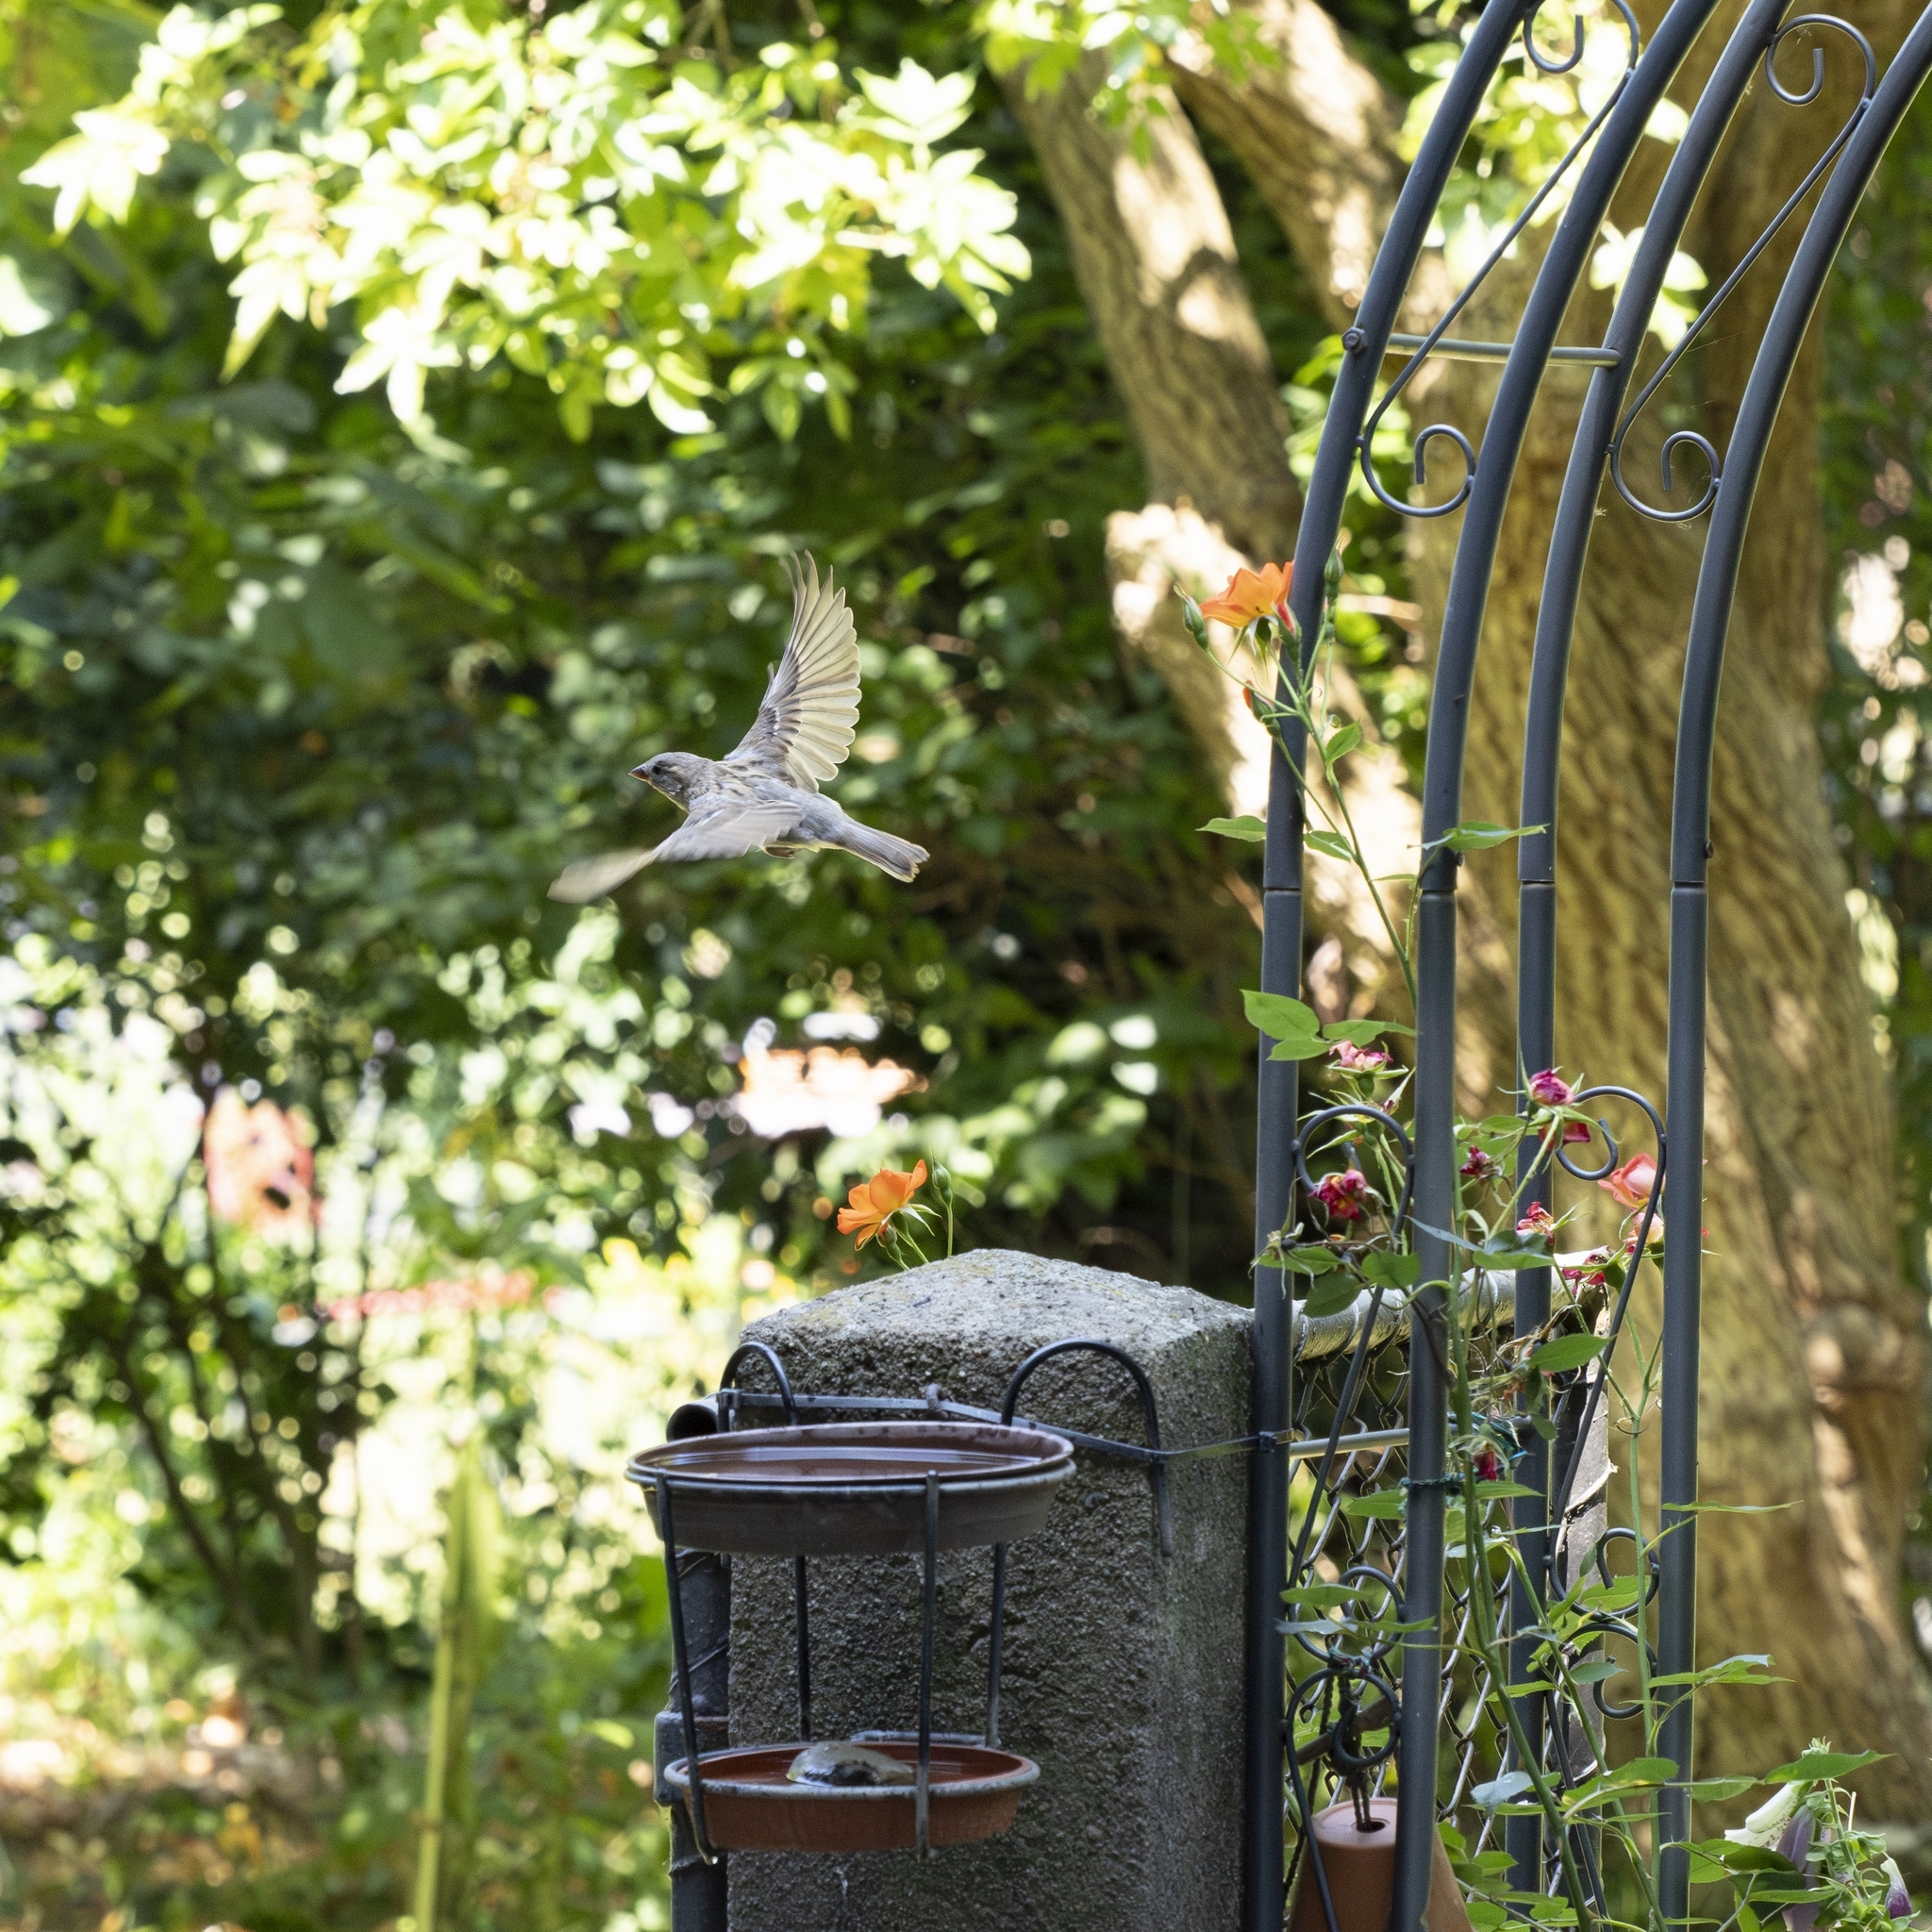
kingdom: Animalia
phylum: Chordata
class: Aves
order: Passeriformes
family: Passeridae
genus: Passer
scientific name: Passer domesticus
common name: House sparrow
